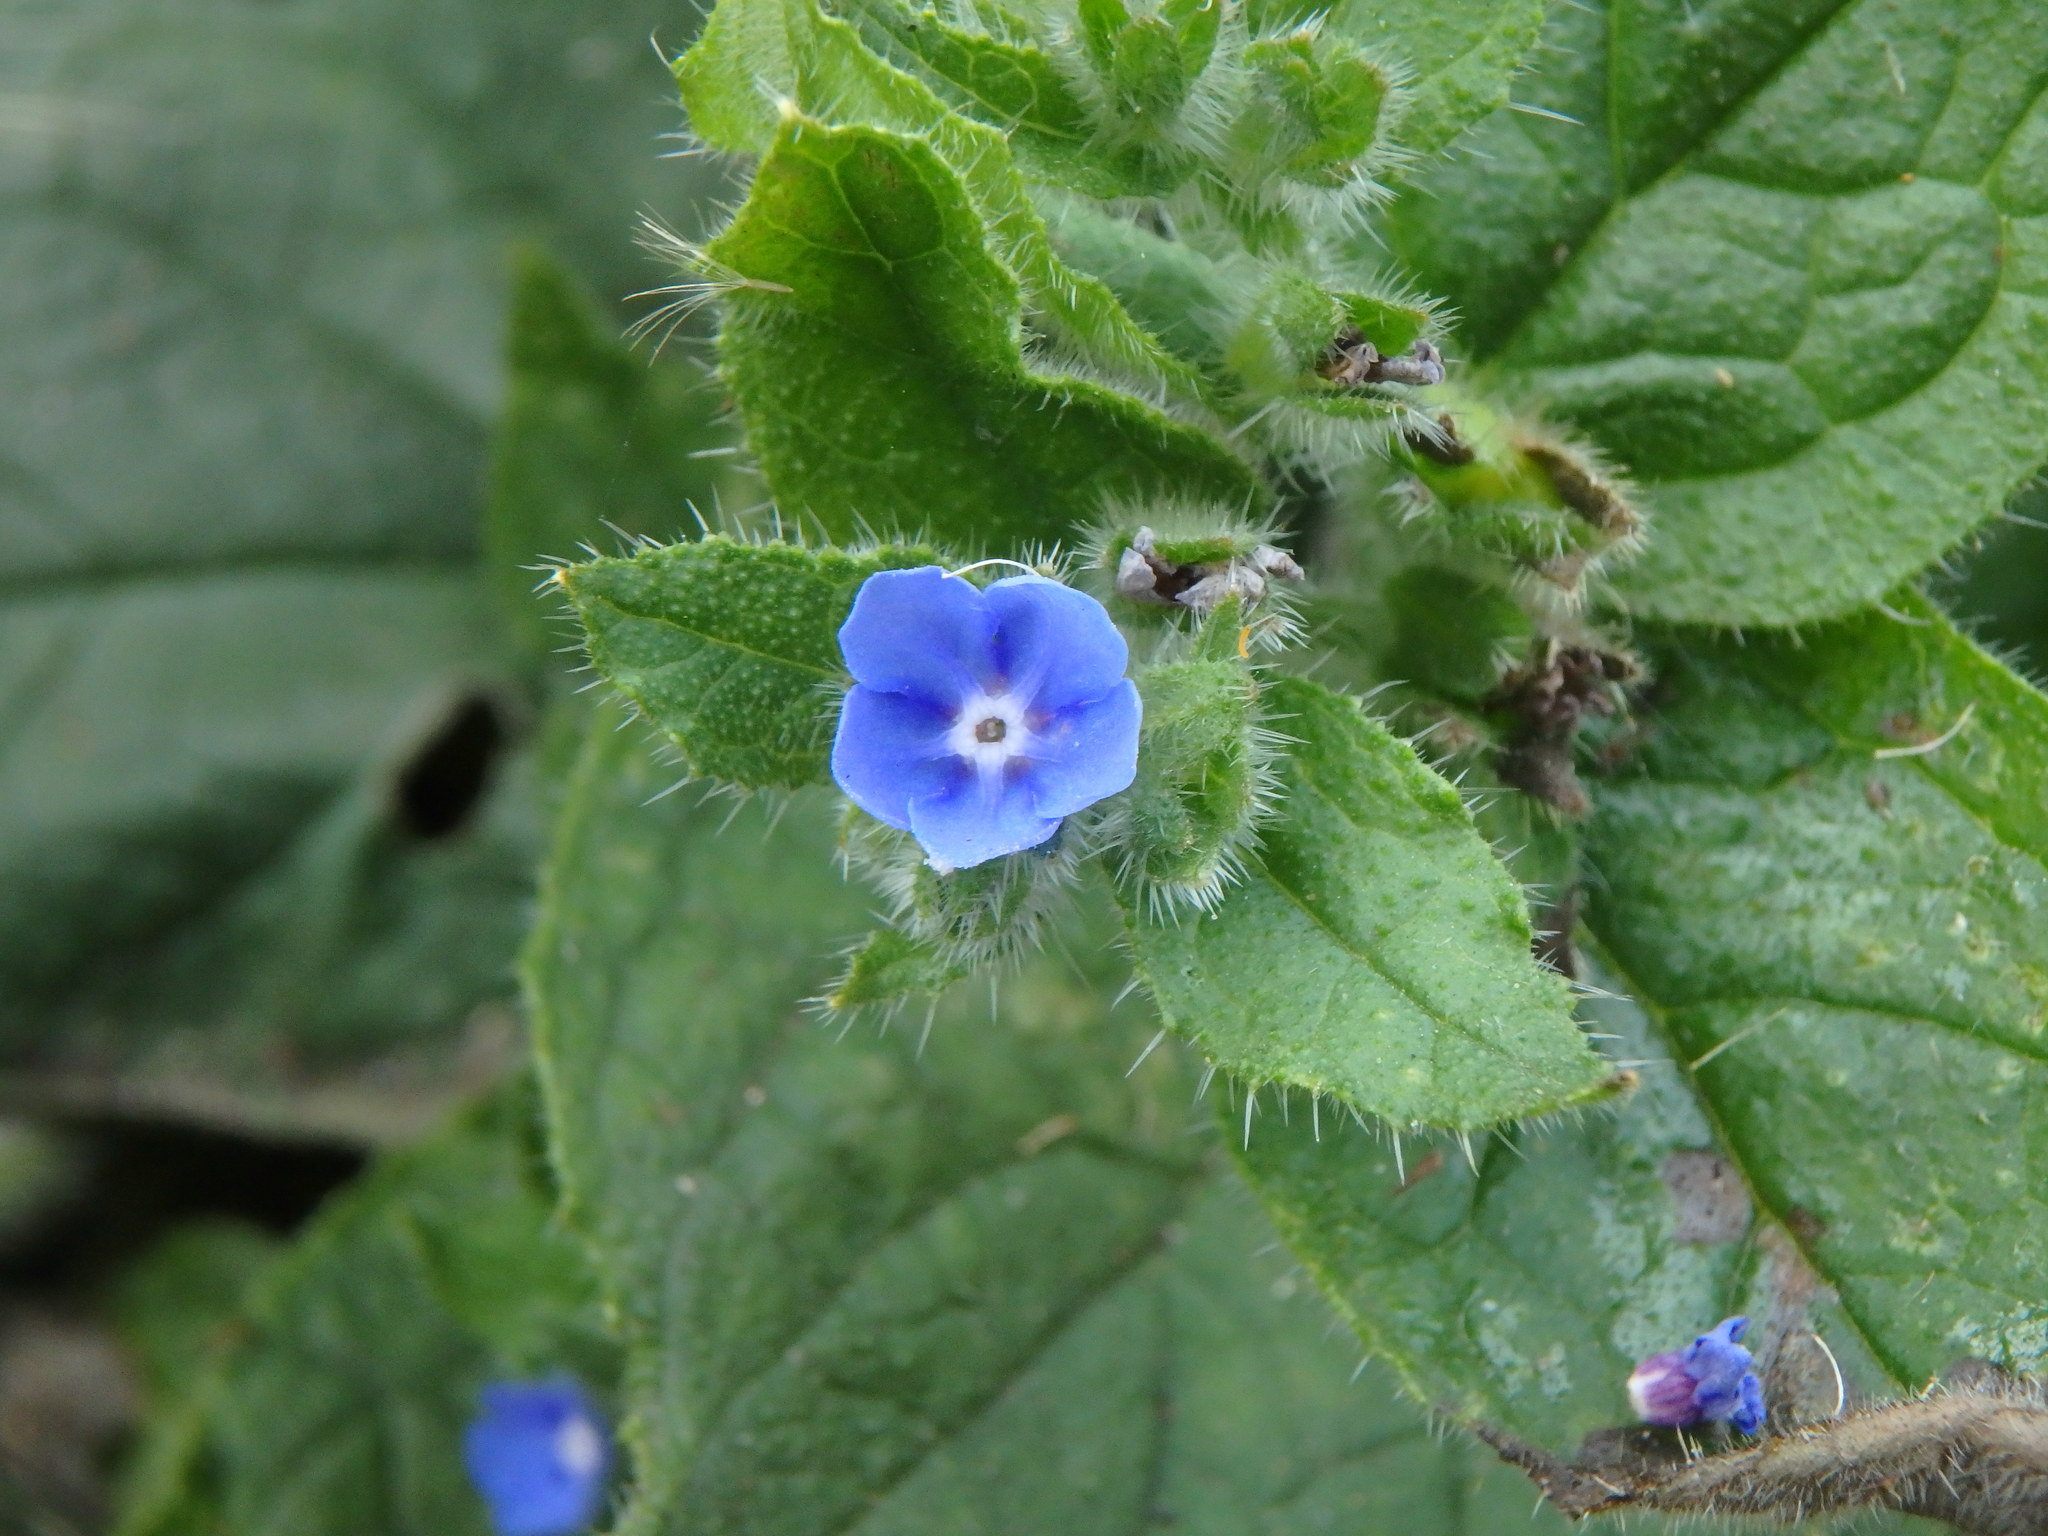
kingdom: Plantae
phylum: Tracheophyta
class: Magnoliopsida
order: Boraginales
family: Boraginaceae
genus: Pentaglottis
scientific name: Pentaglottis sempervirens
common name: Green alkanet
